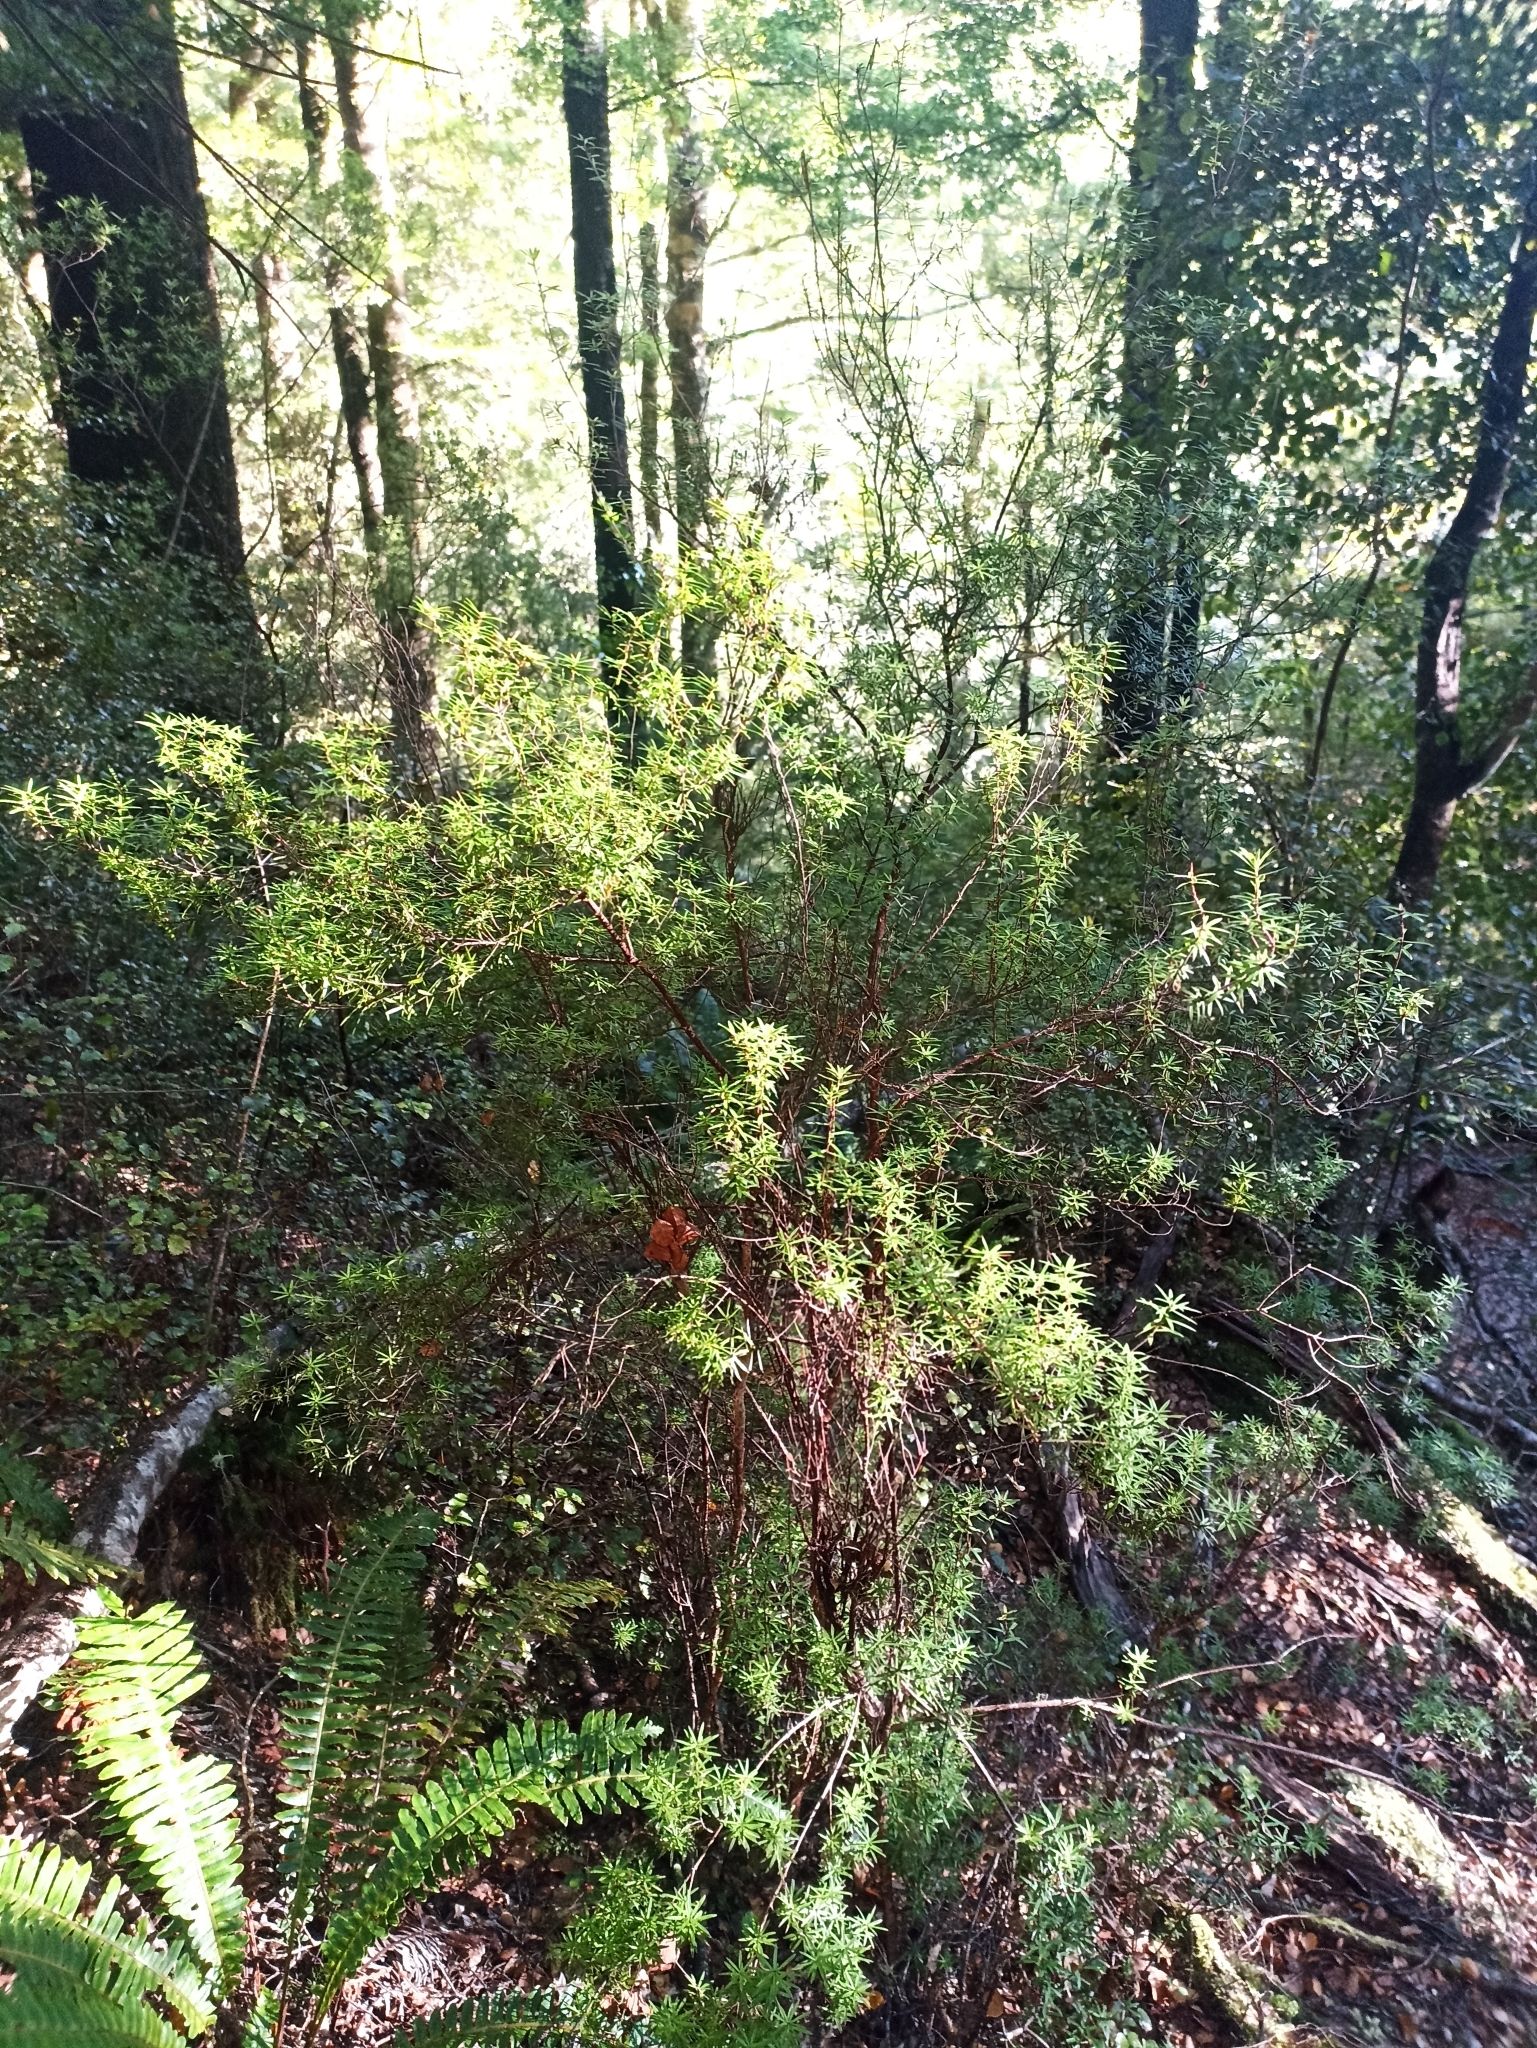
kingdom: Plantae
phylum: Tracheophyta
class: Magnoliopsida
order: Ericales
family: Ericaceae
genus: Leucopogon
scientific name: Leucopogon fasciculatus
